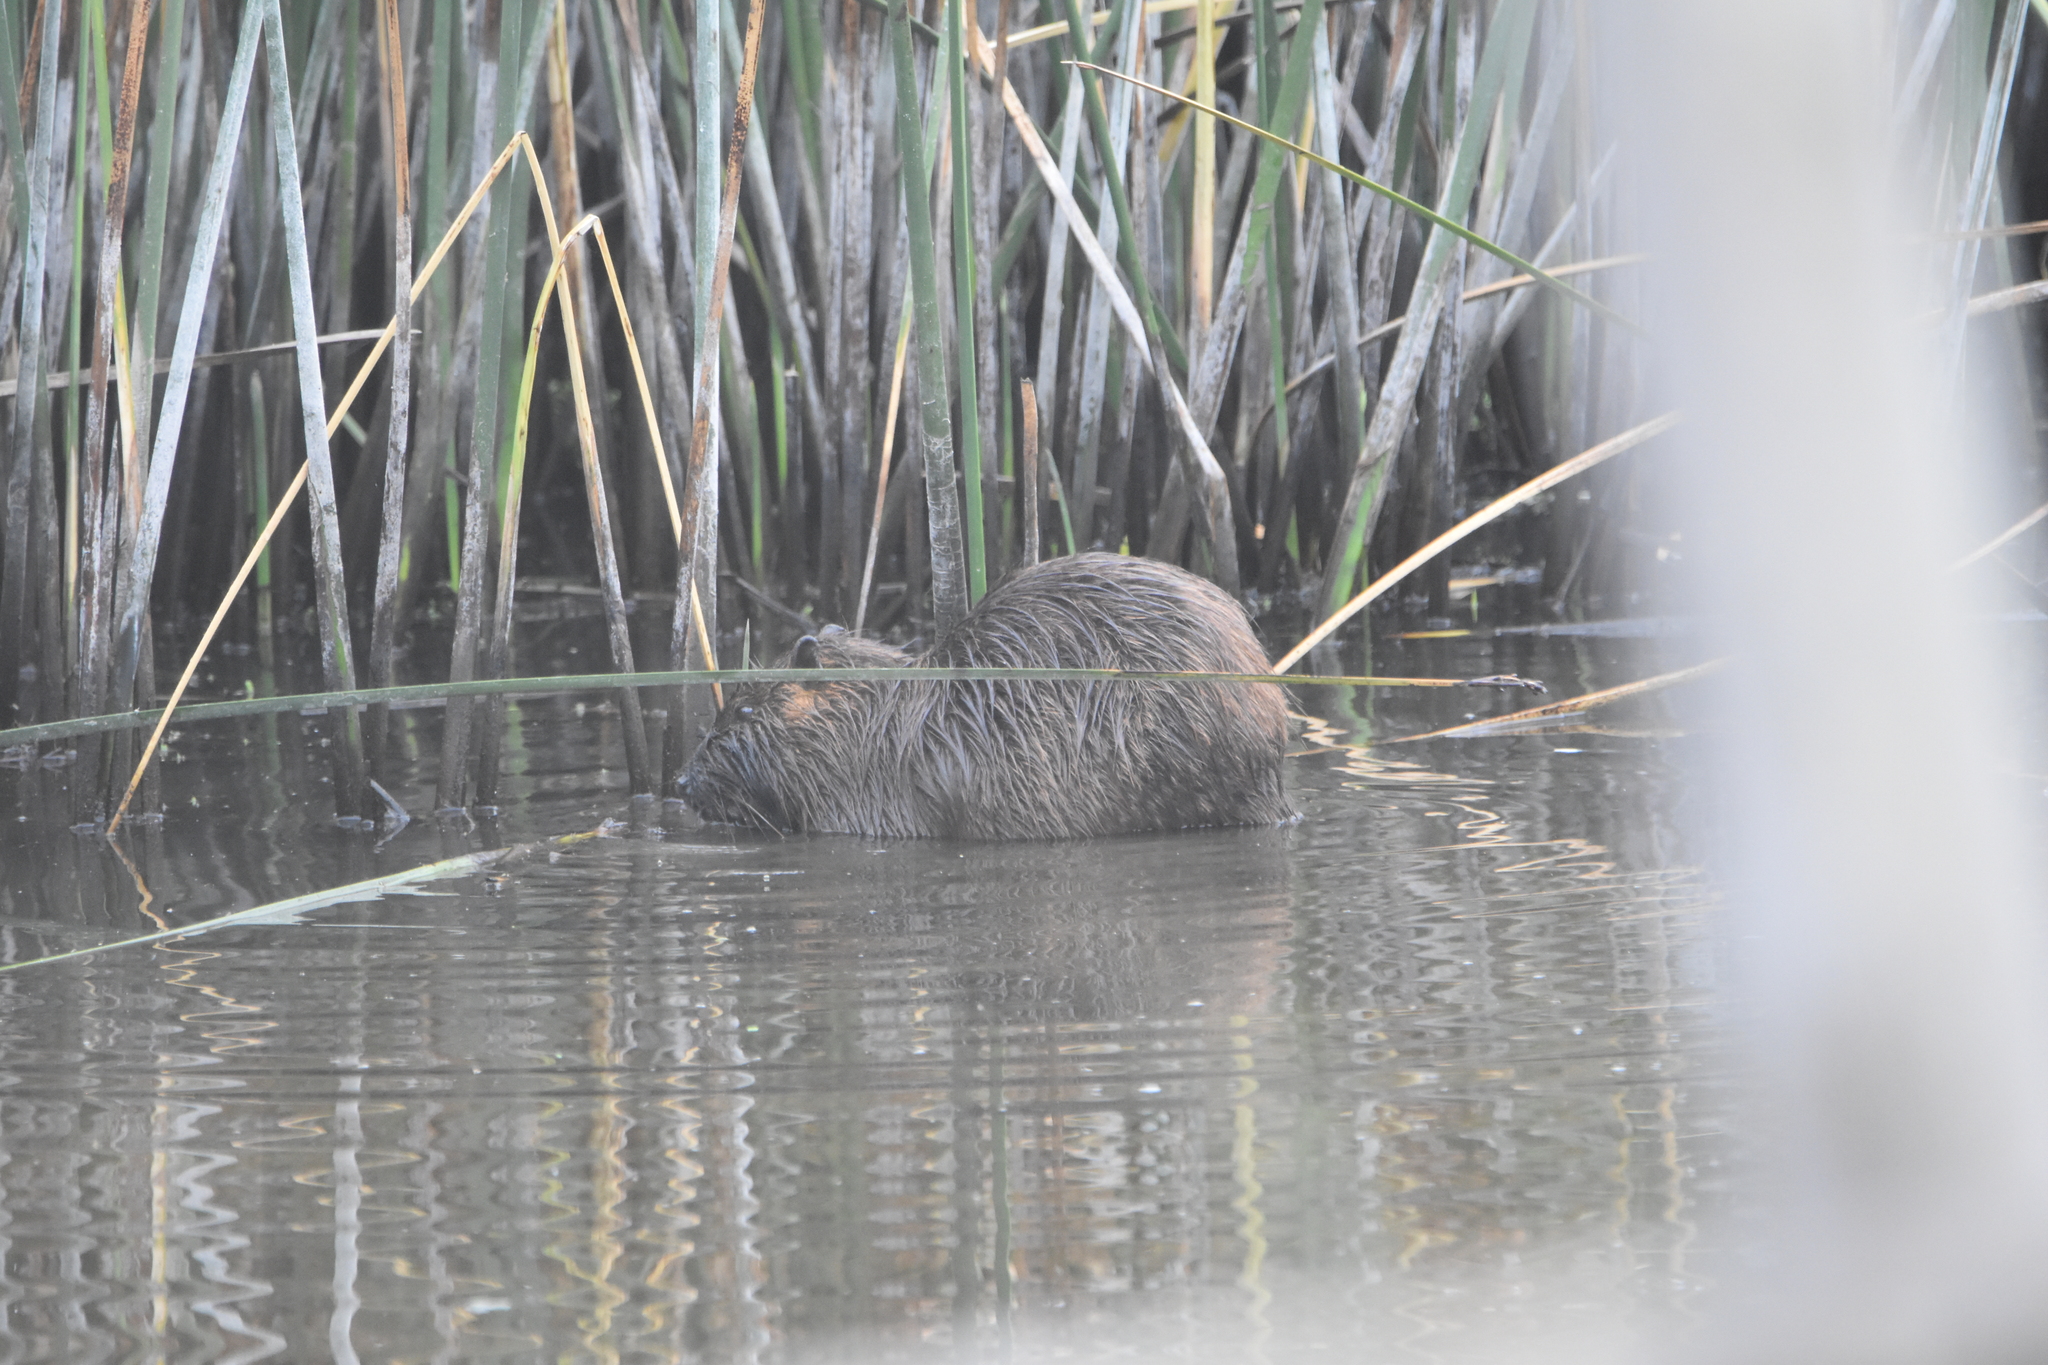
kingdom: Animalia
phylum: Chordata
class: Mammalia
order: Rodentia
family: Myocastoridae
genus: Myocastor
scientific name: Myocastor coypus
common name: Coypu
